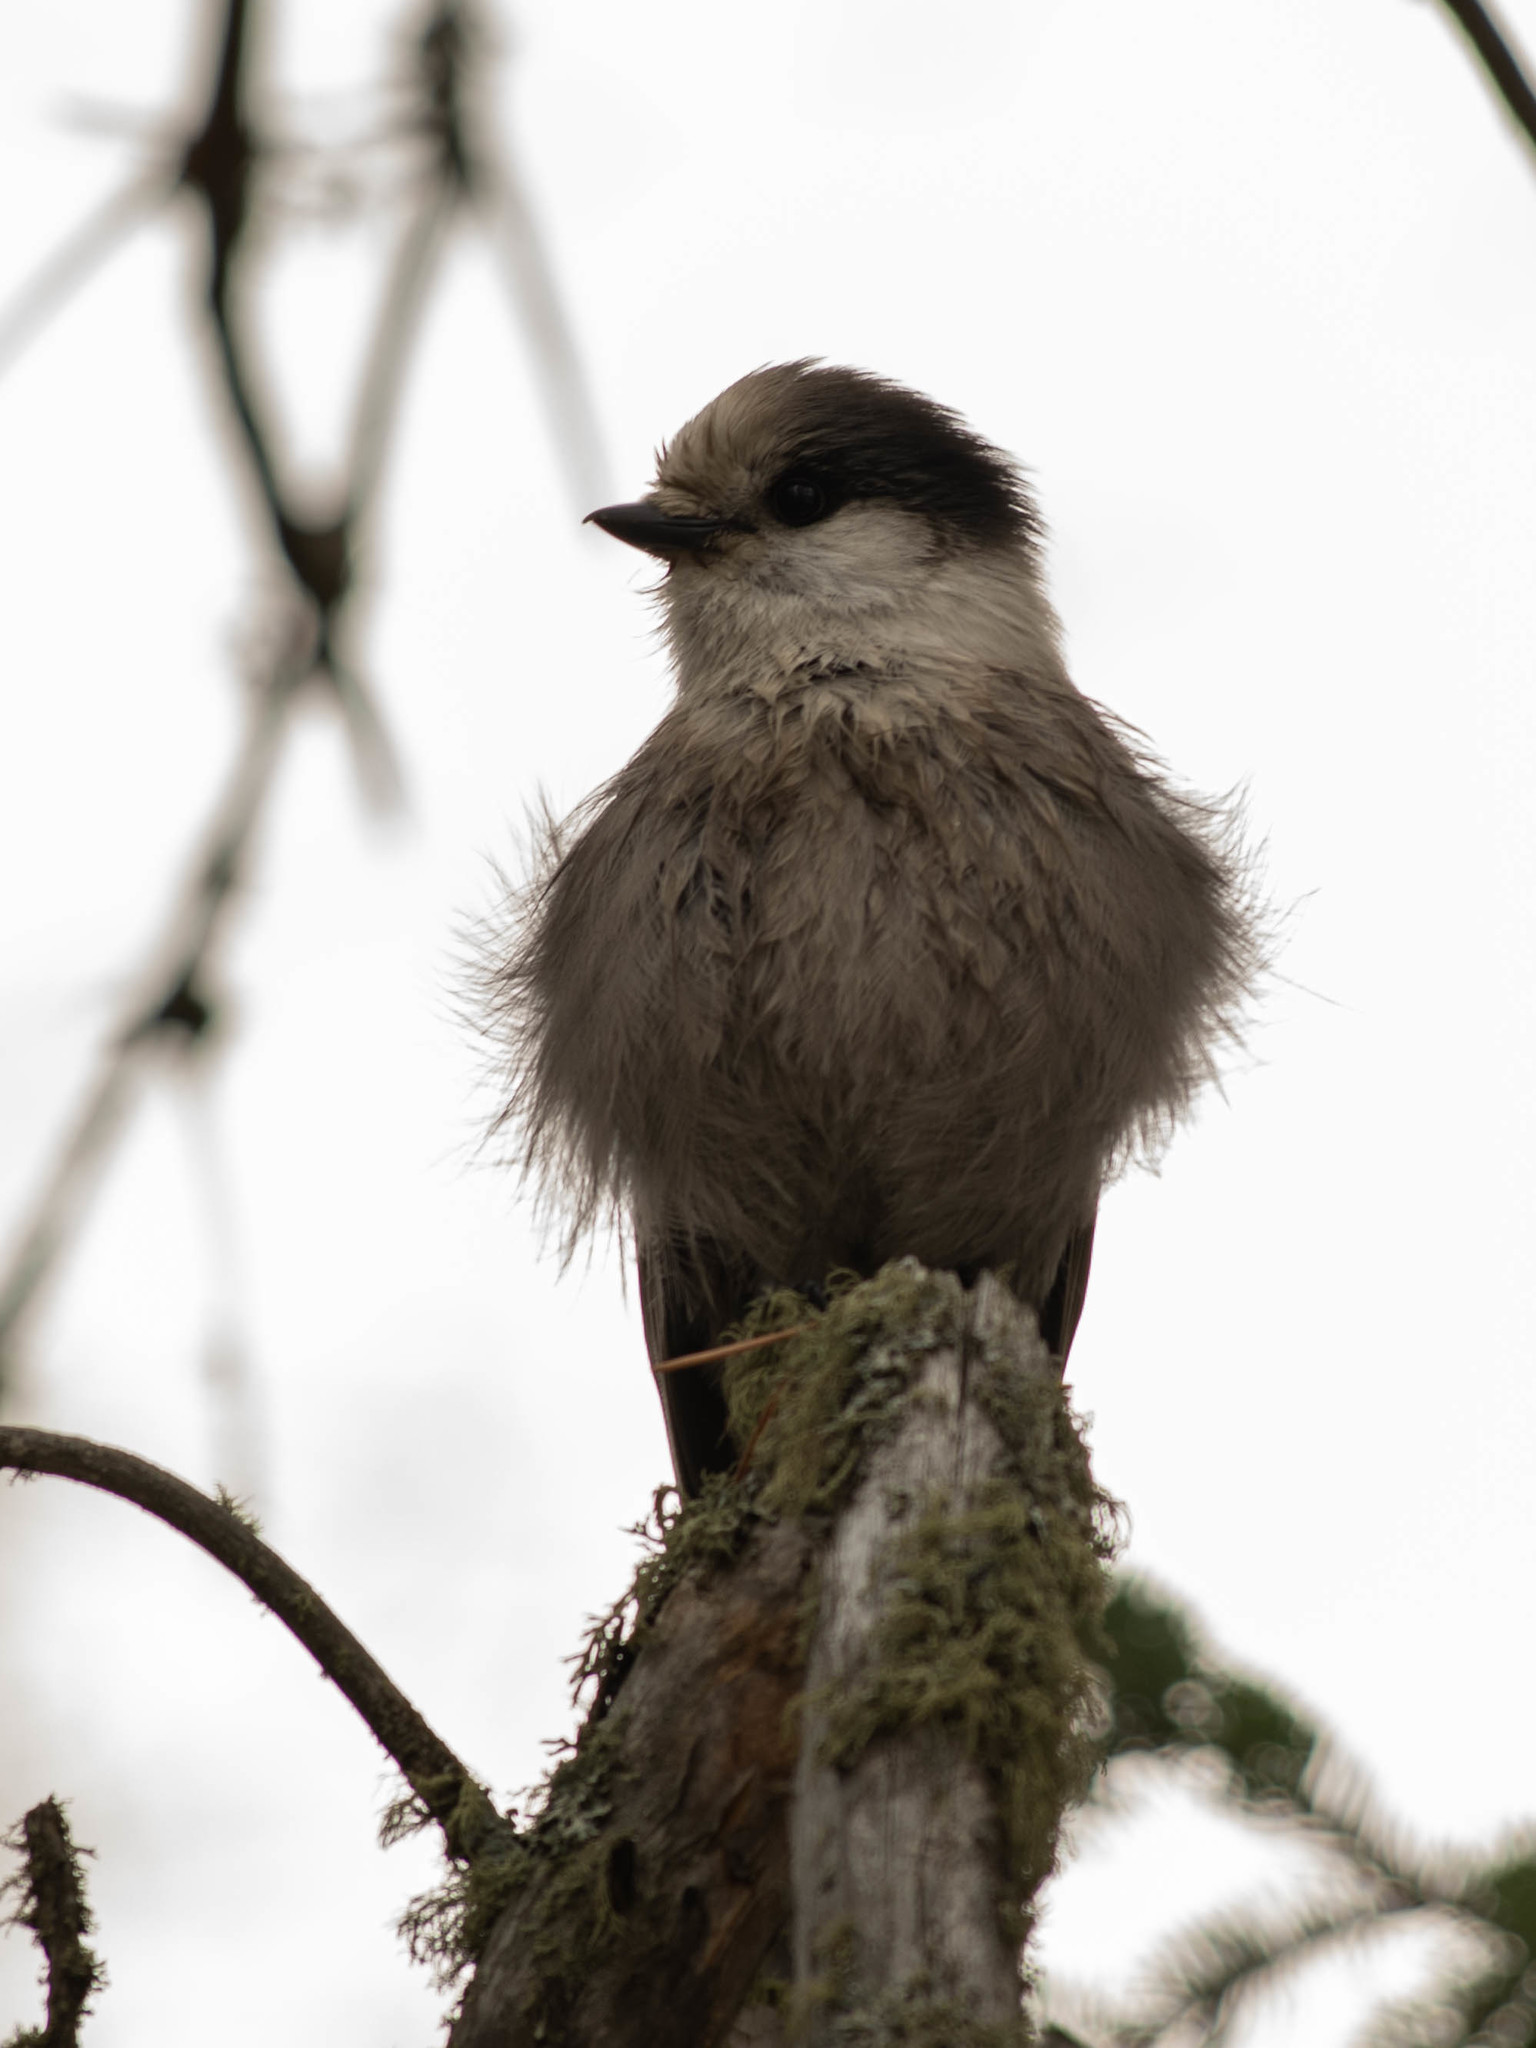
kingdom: Animalia
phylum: Chordata
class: Aves
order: Passeriformes
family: Corvidae
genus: Perisoreus
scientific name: Perisoreus canadensis
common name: Gray jay
